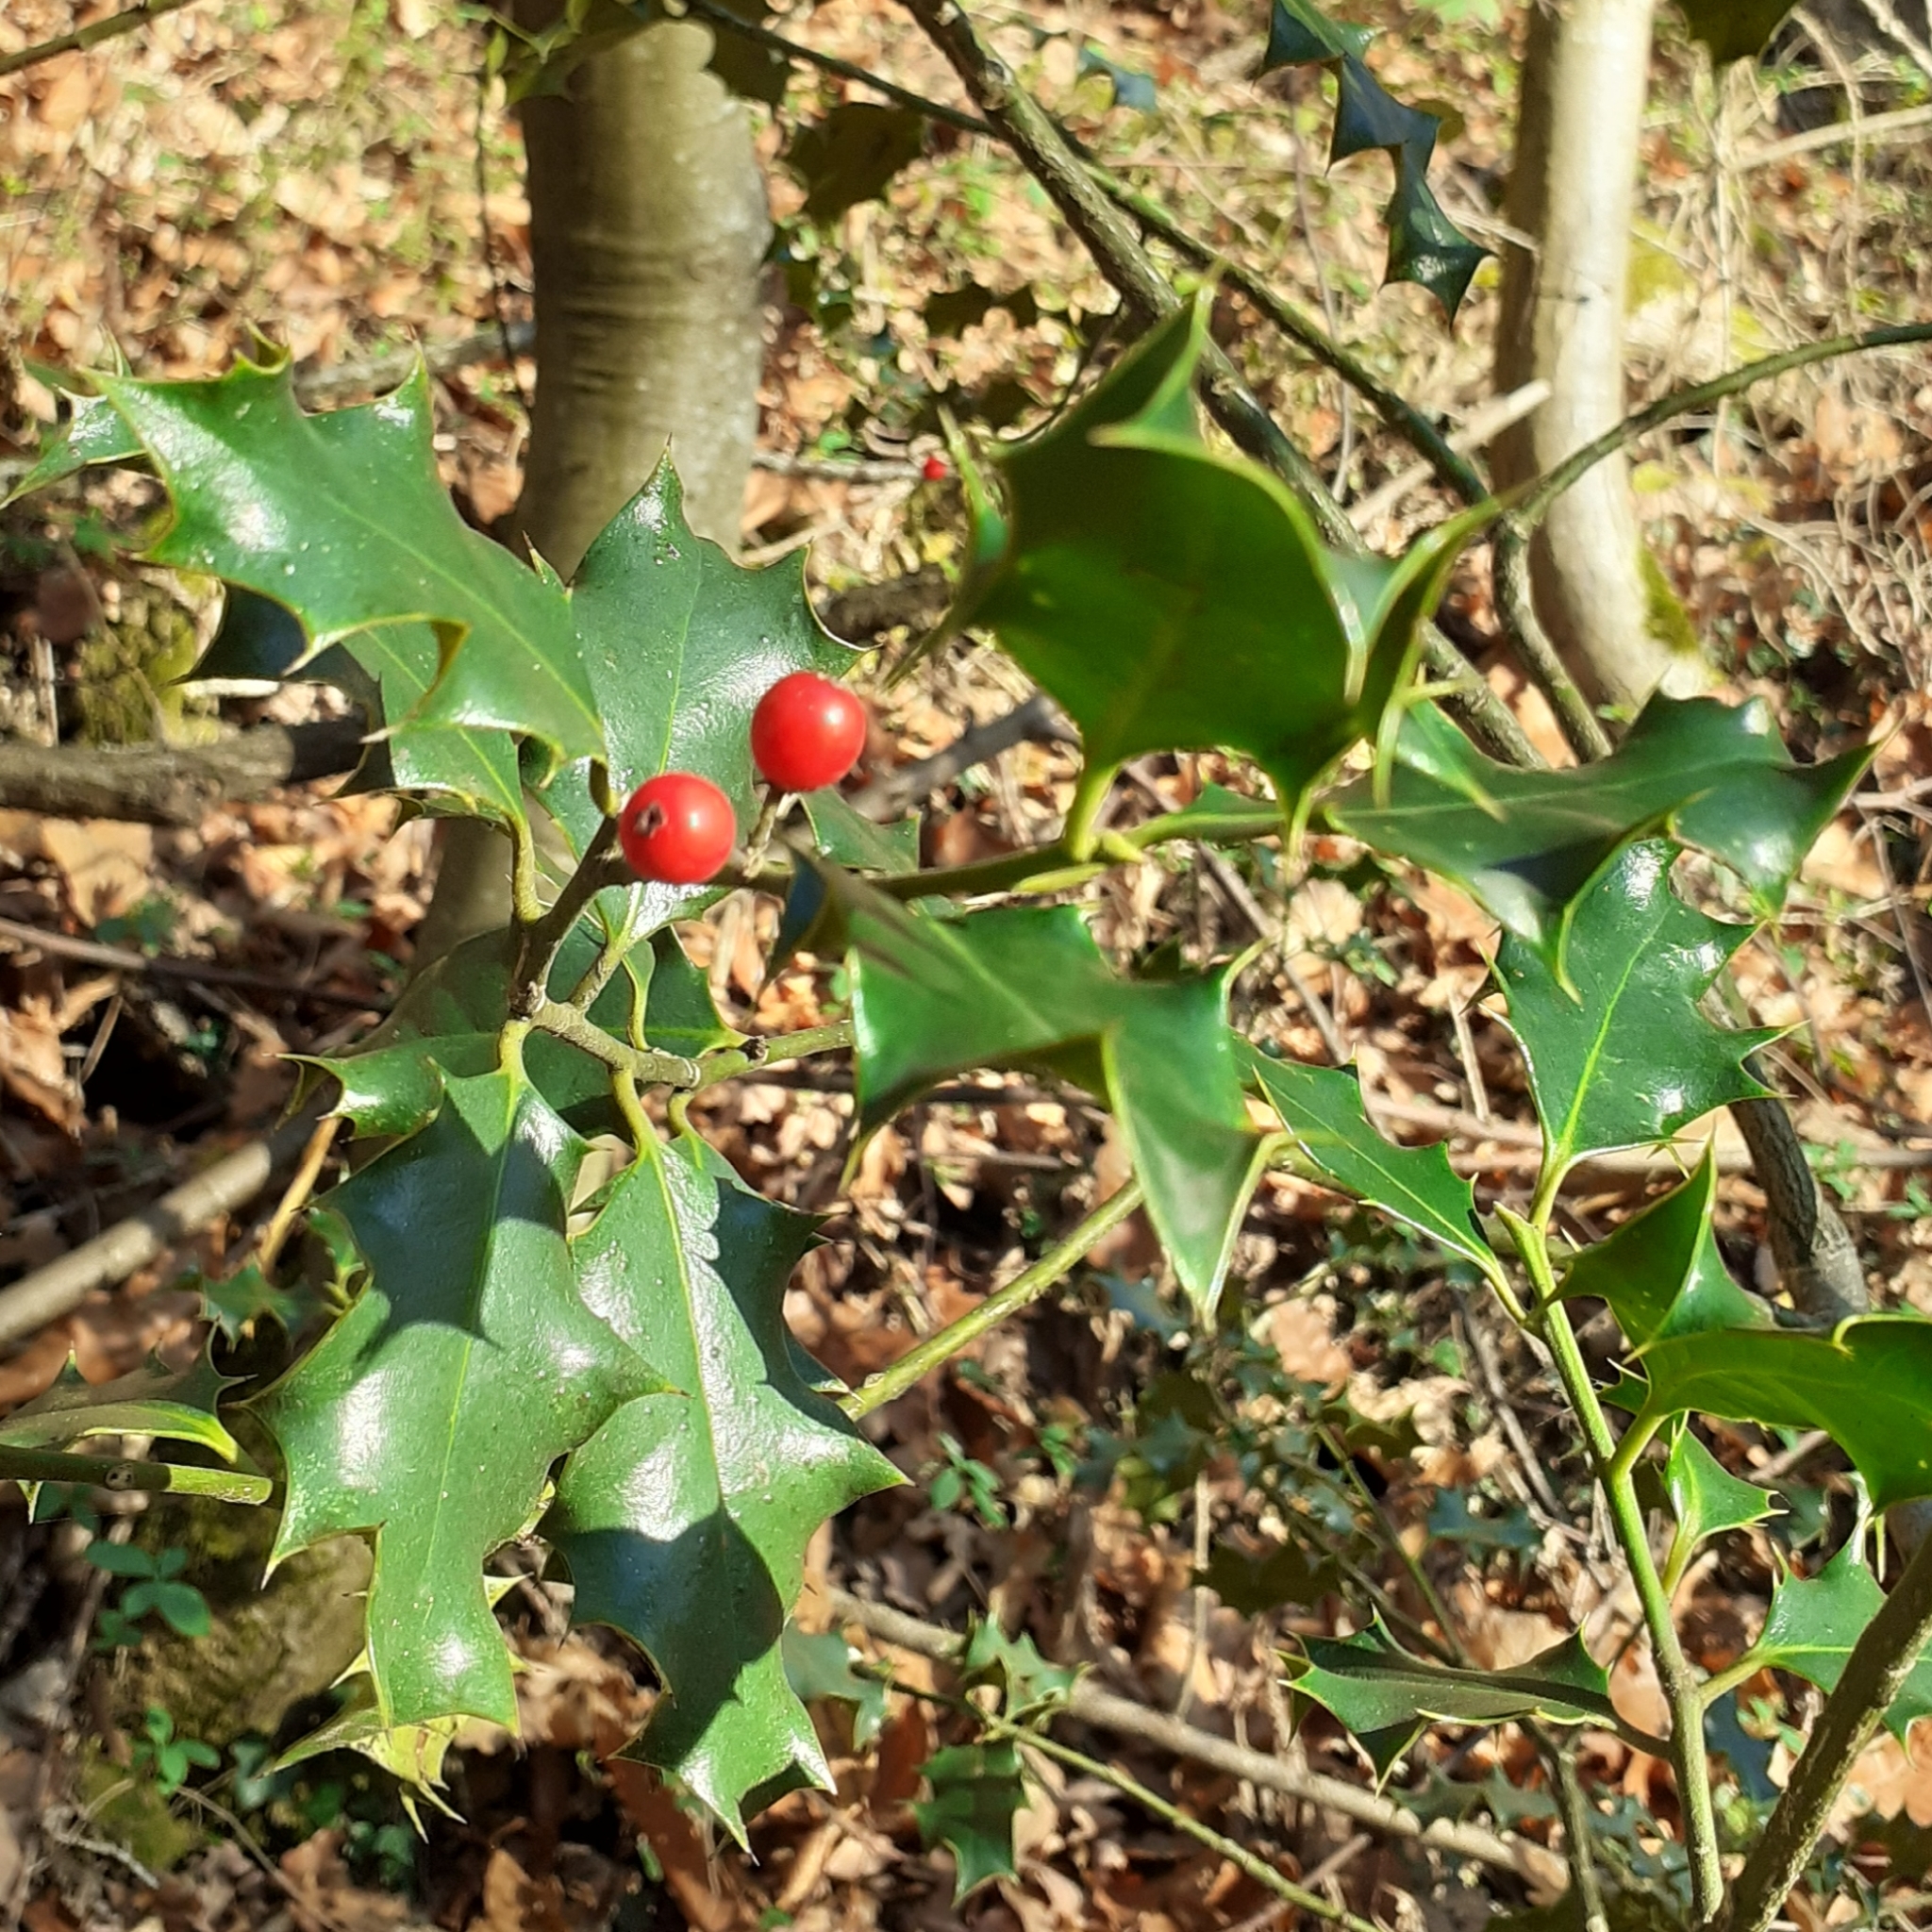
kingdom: Plantae
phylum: Tracheophyta
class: Magnoliopsida
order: Aquifoliales
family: Aquifoliaceae
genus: Ilex
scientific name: Ilex aquifolium
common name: English holly
